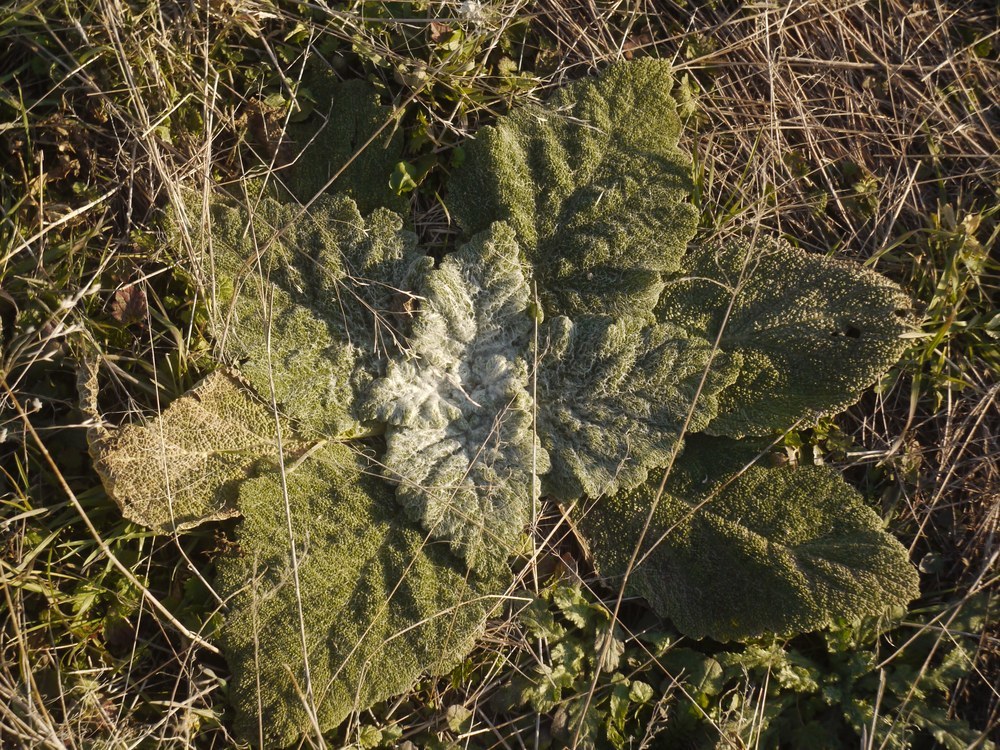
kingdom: Plantae
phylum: Tracheophyta
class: Magnoliopsida
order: Lamiales
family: Lamiaceae
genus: Salvia
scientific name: Salvia aethiopis
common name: Mediterranean sage
